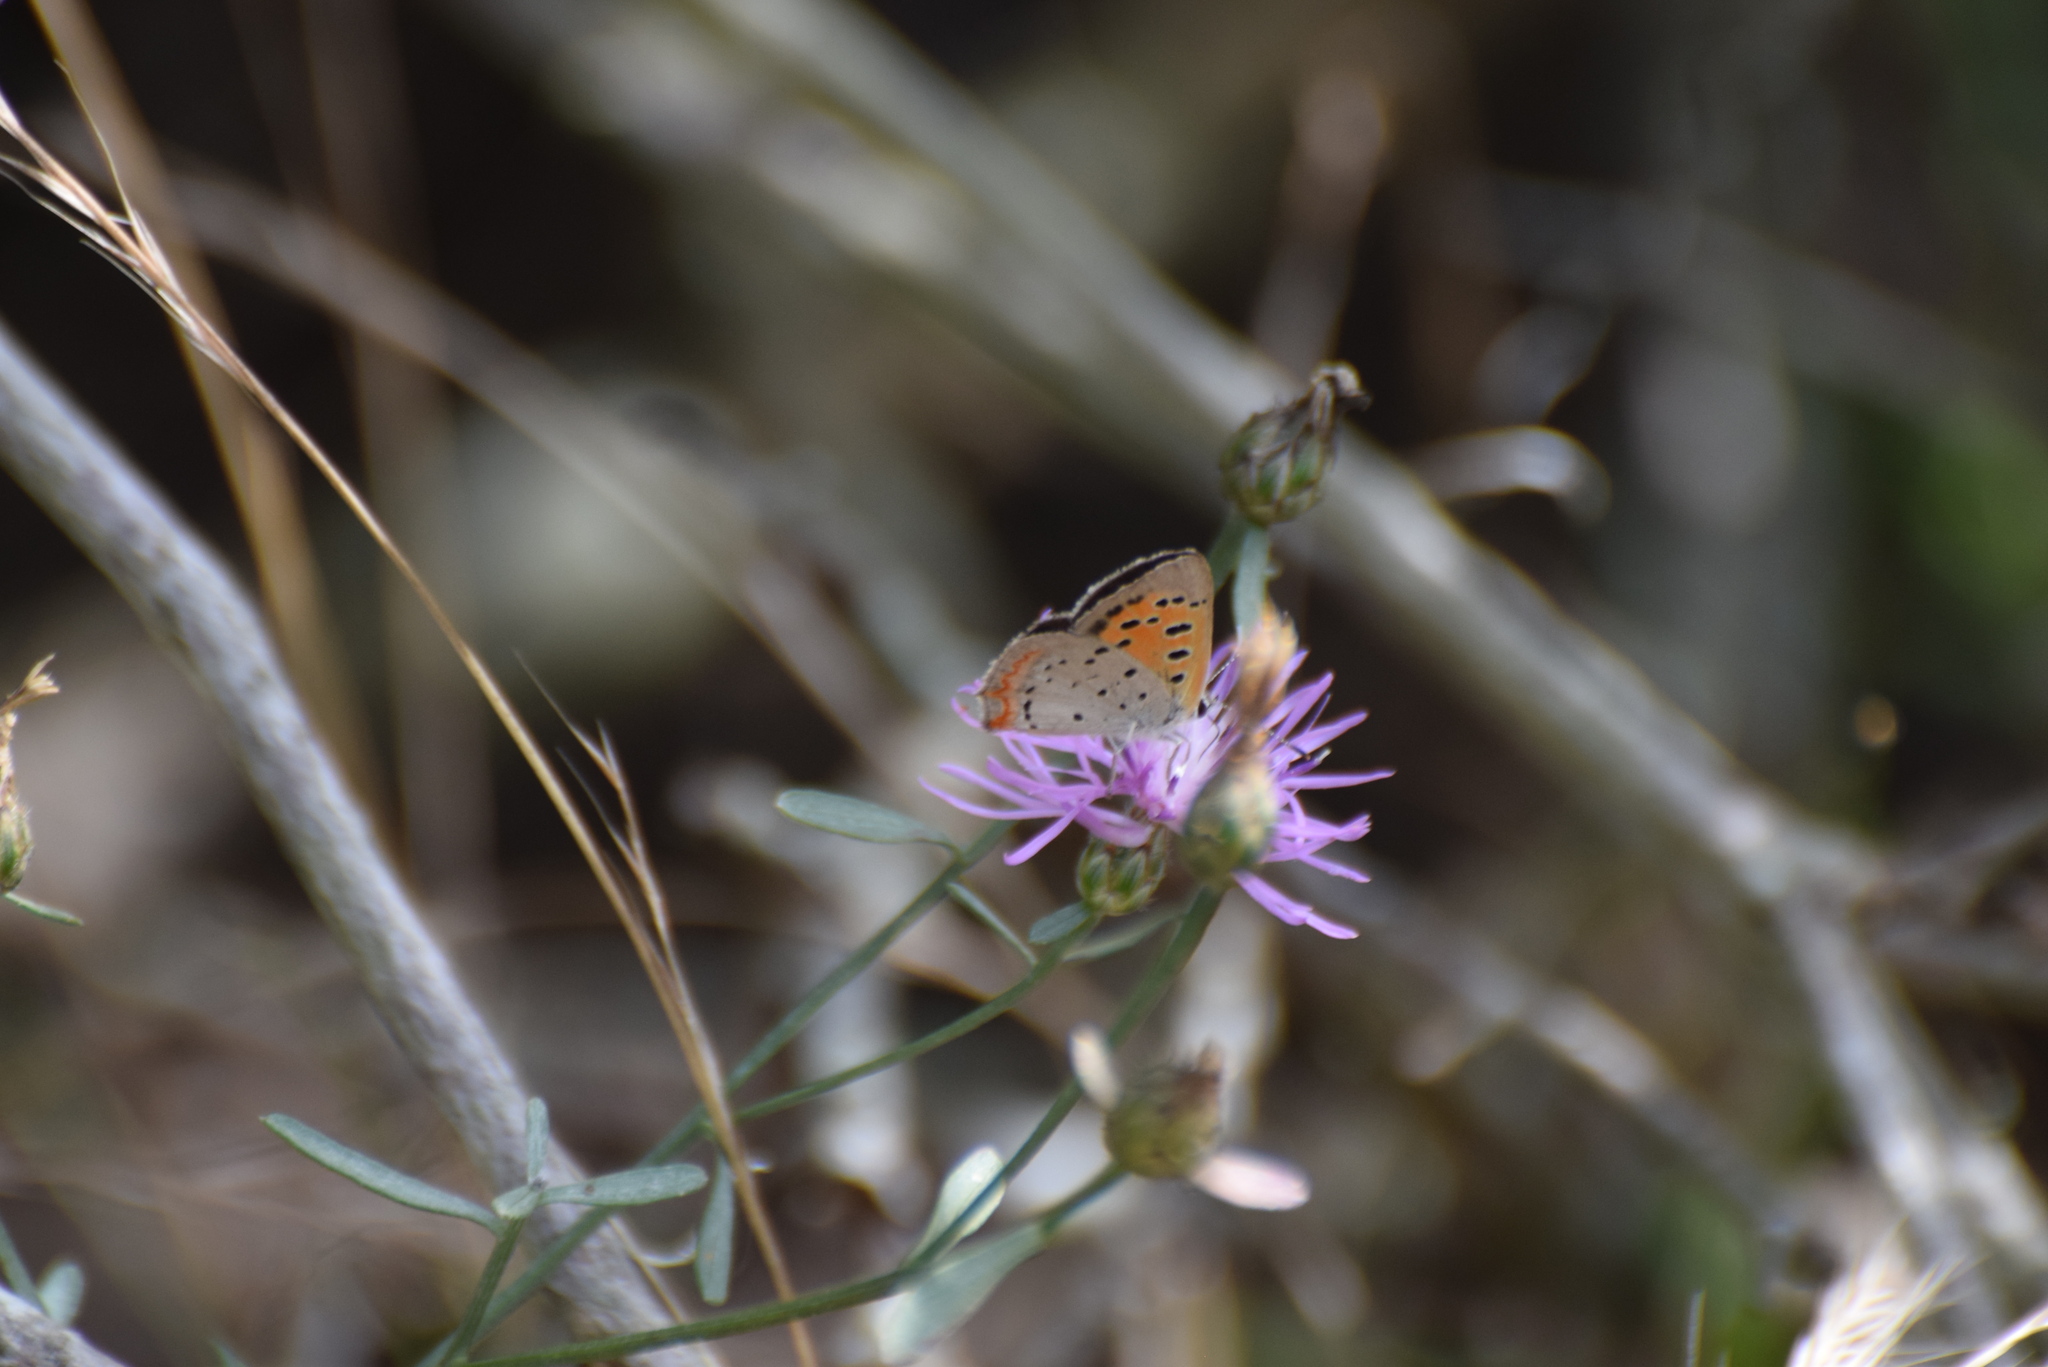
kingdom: Animalia
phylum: Arthropoda
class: Insecta
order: Lepidoptera
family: Lycaenidae
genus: Lycaena
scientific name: Lycaena hypophlaeas
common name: American copper
